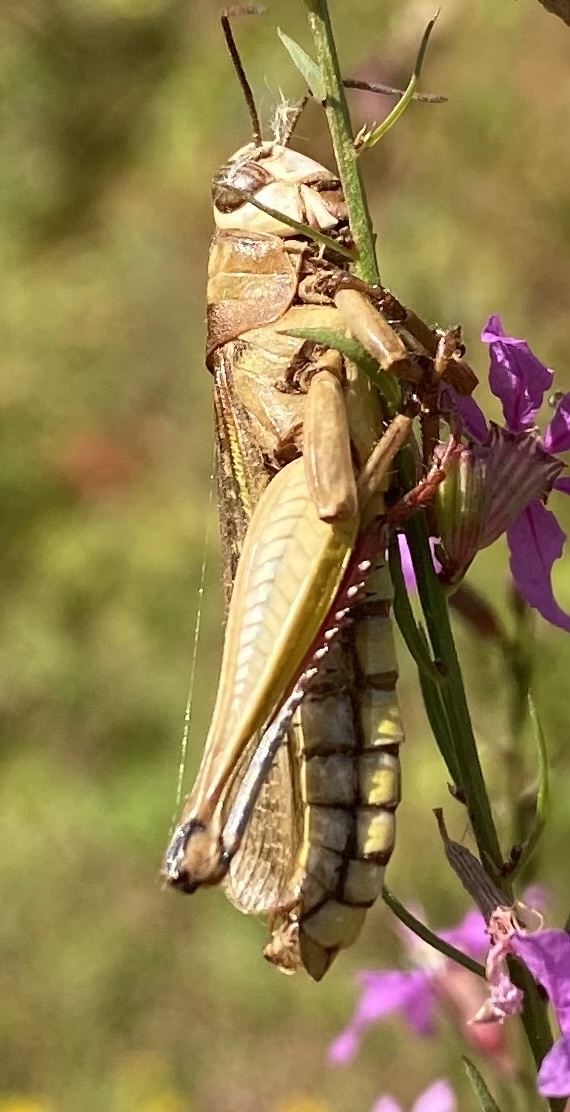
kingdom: Animalia
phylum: Arthropoda
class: Insecta
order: Orthoptera
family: Acrididae
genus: Eyprepocnemis
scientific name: Eyprepocnemis plorans
